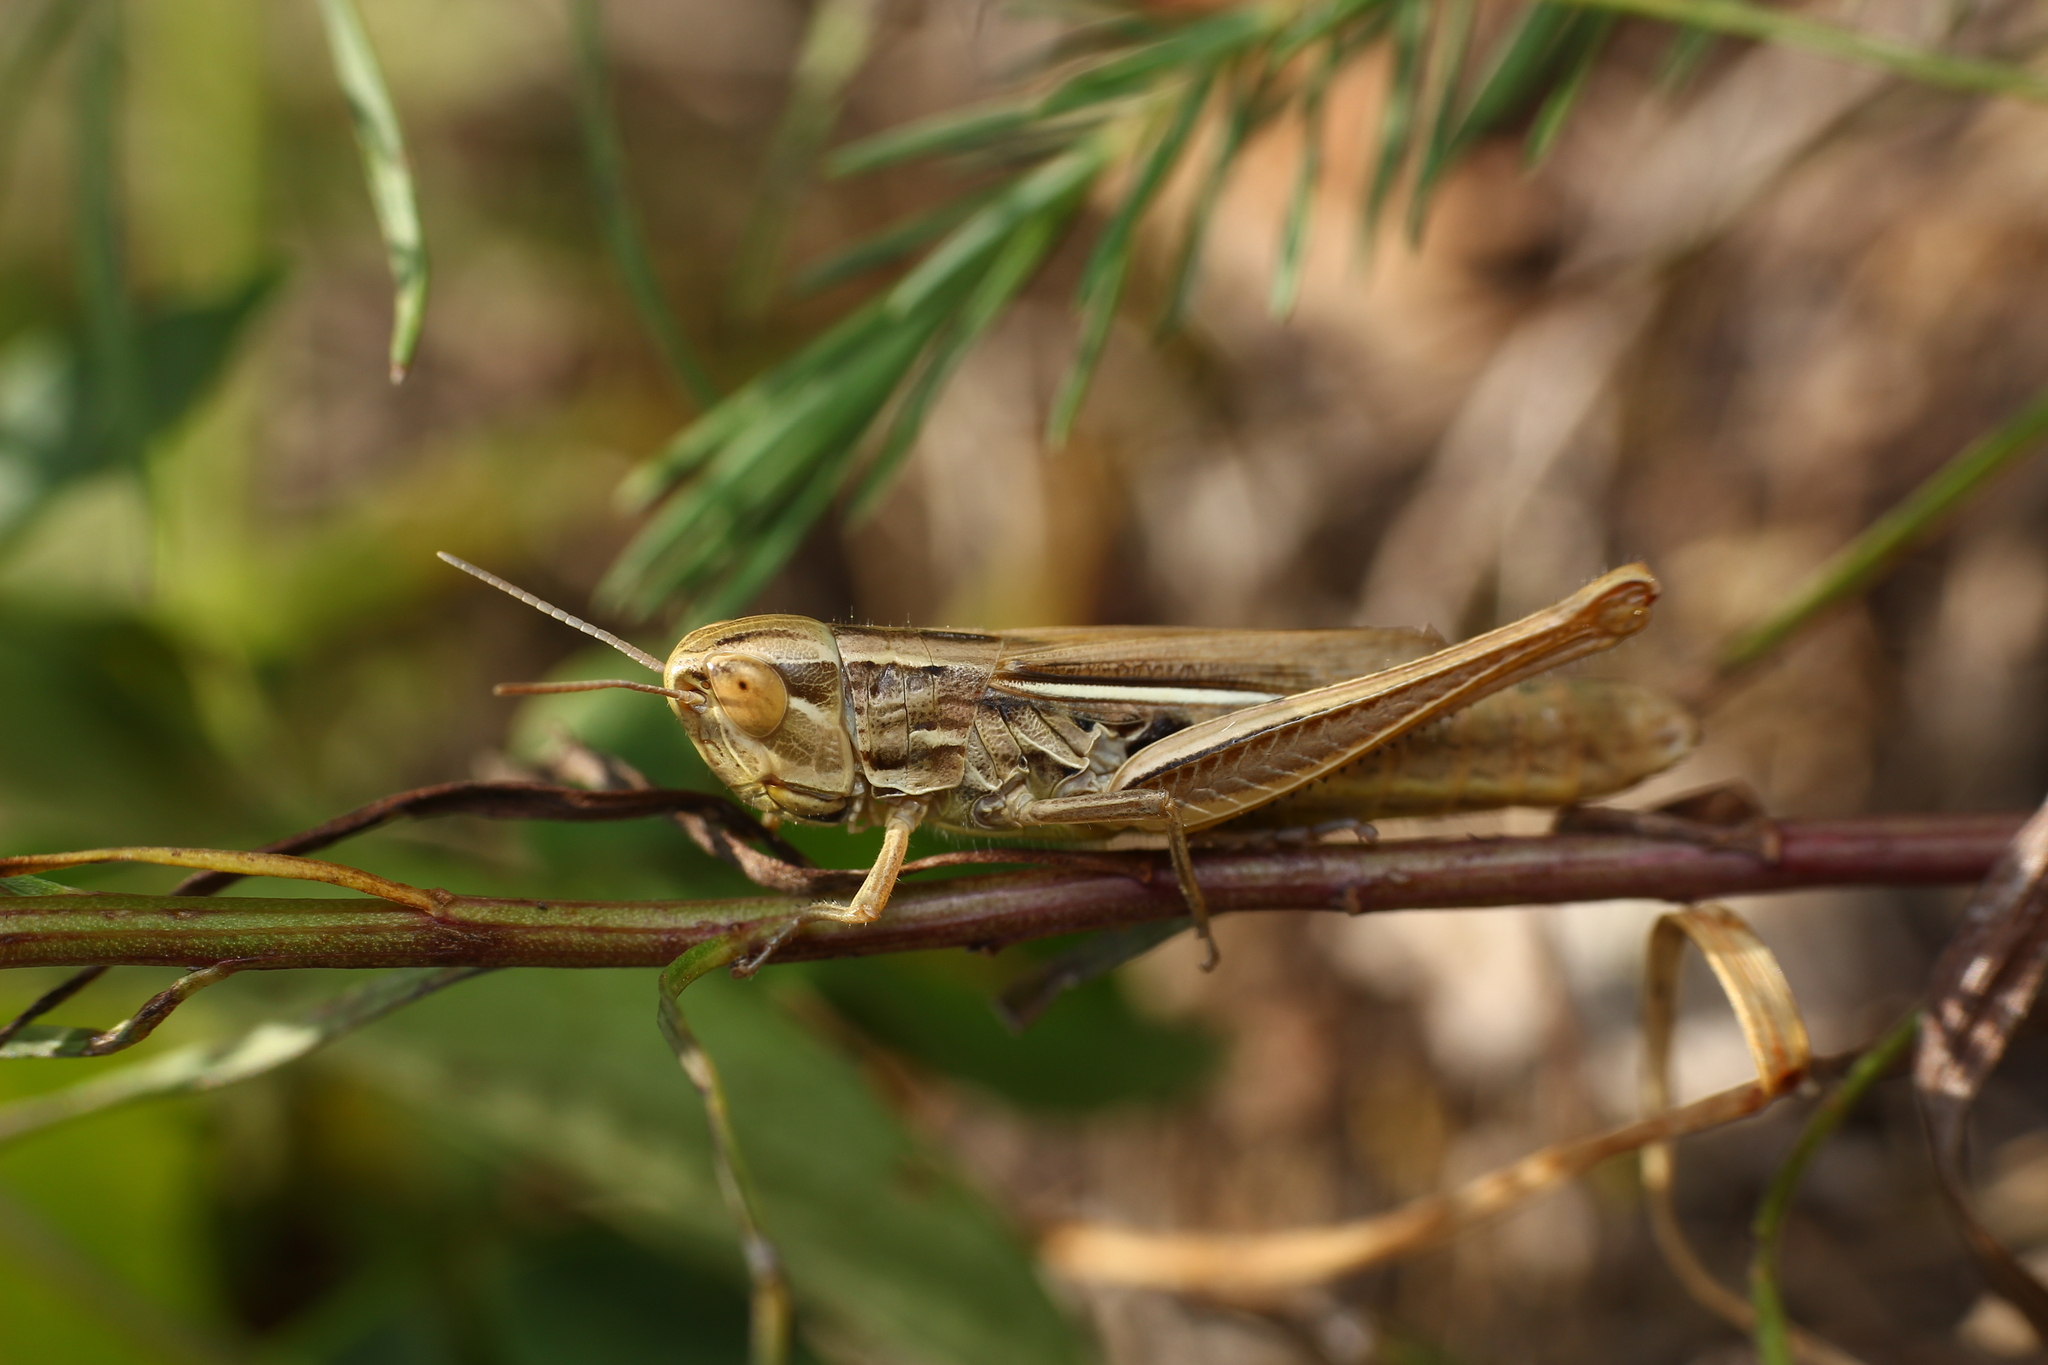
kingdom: Animalia
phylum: Arthropoda
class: Insecta
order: Orthoptera
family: Acrididae
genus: Euchorthippus
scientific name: Euchorthippus declivus
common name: Common straw grasshopper
